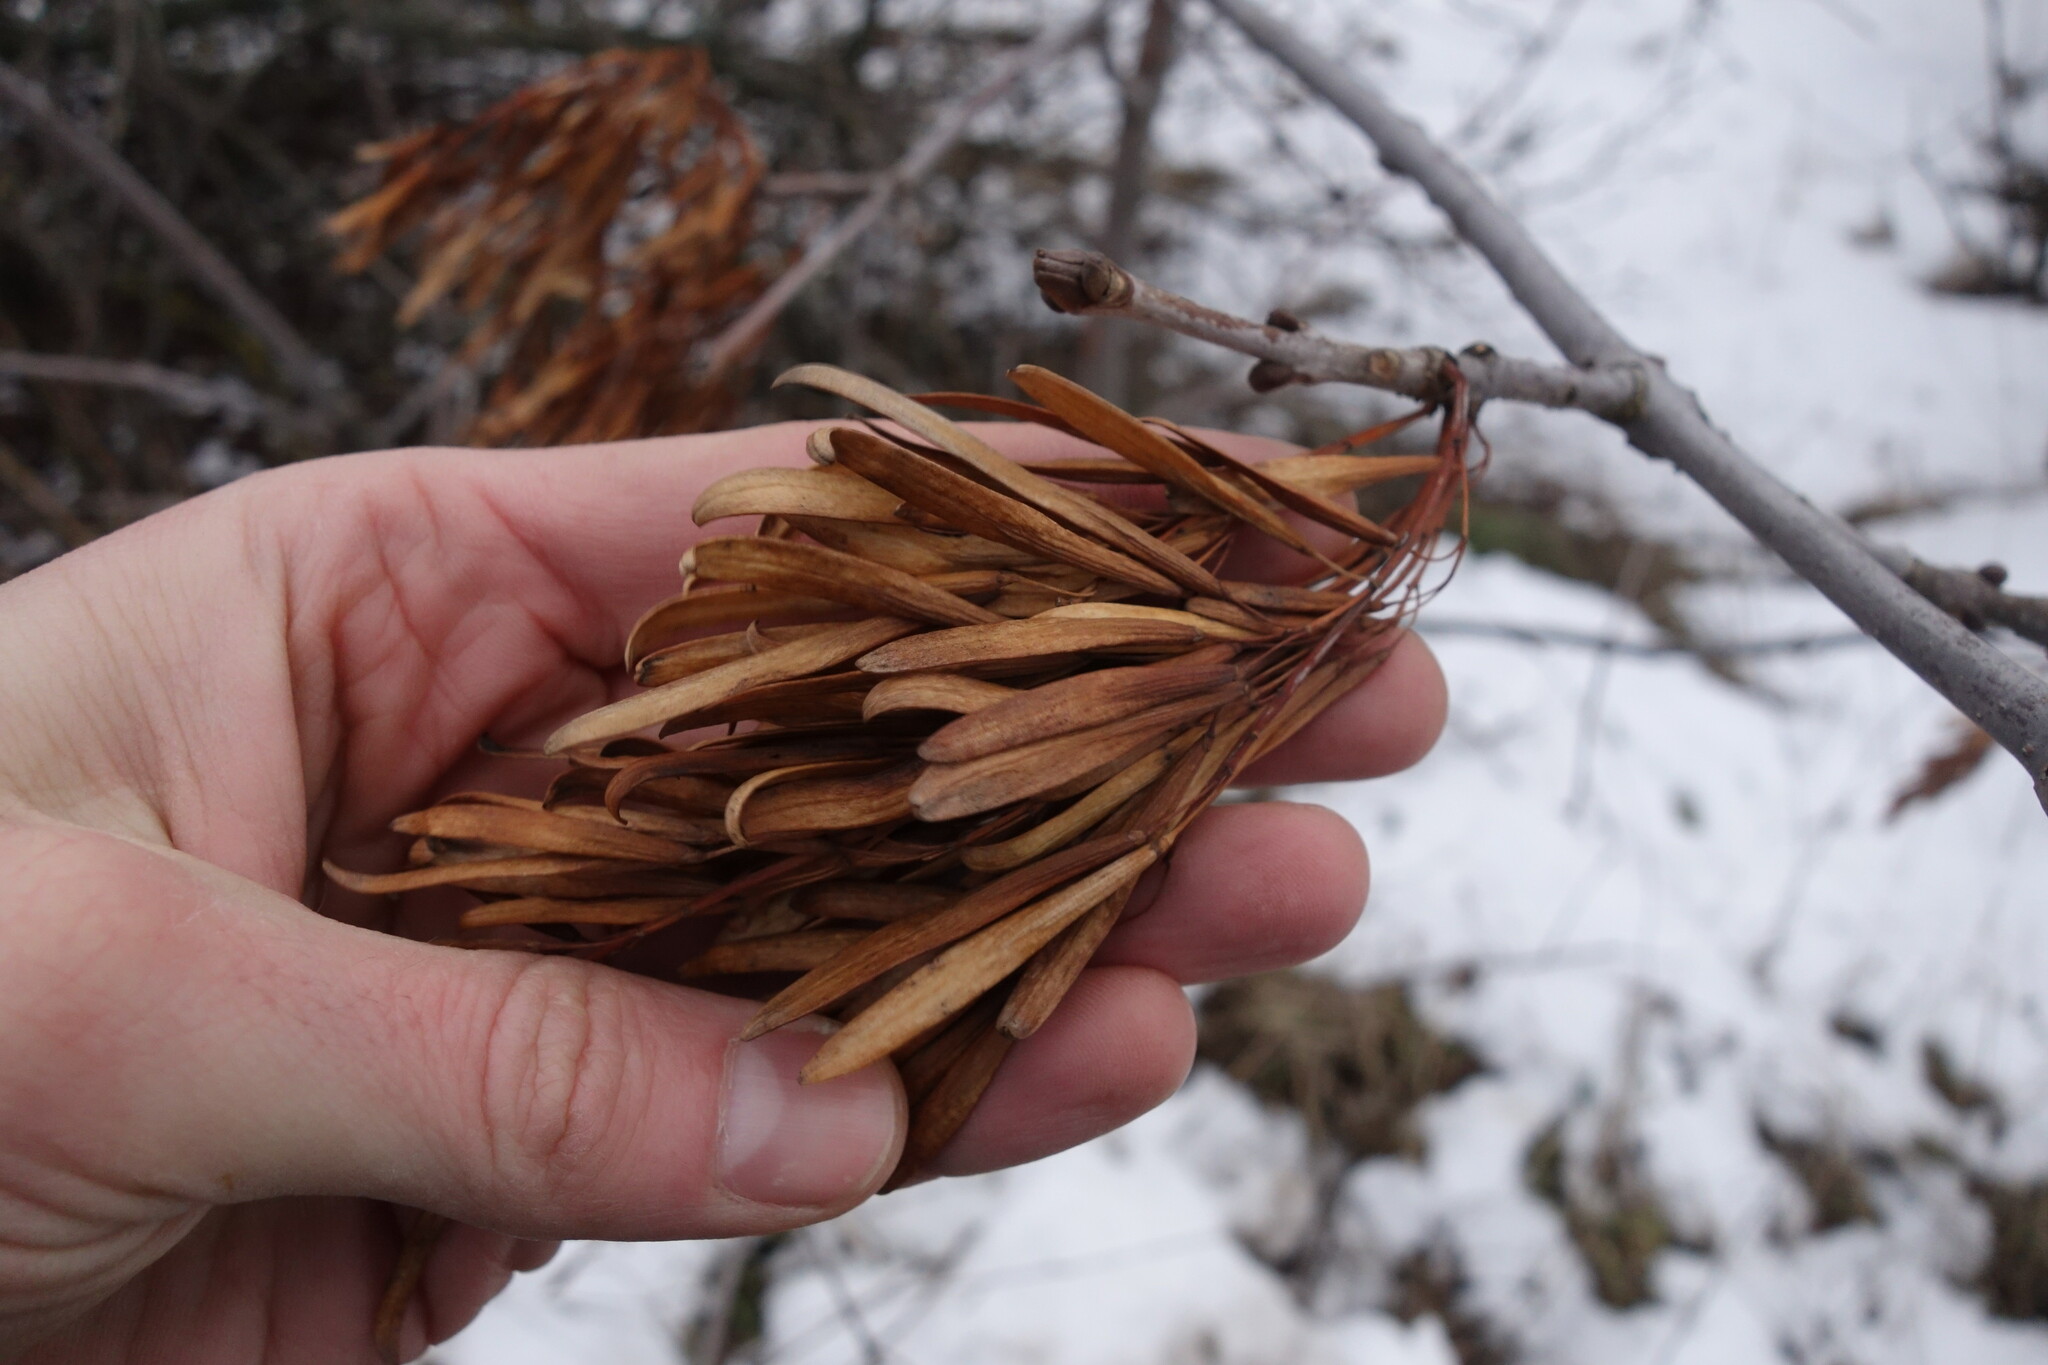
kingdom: Plantae
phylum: Tracheophyta
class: Magnoliopsida
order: Lamiales
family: Oleaceae
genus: Fraxinus
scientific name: Fraxinus pennsylvanica
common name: Green ash
